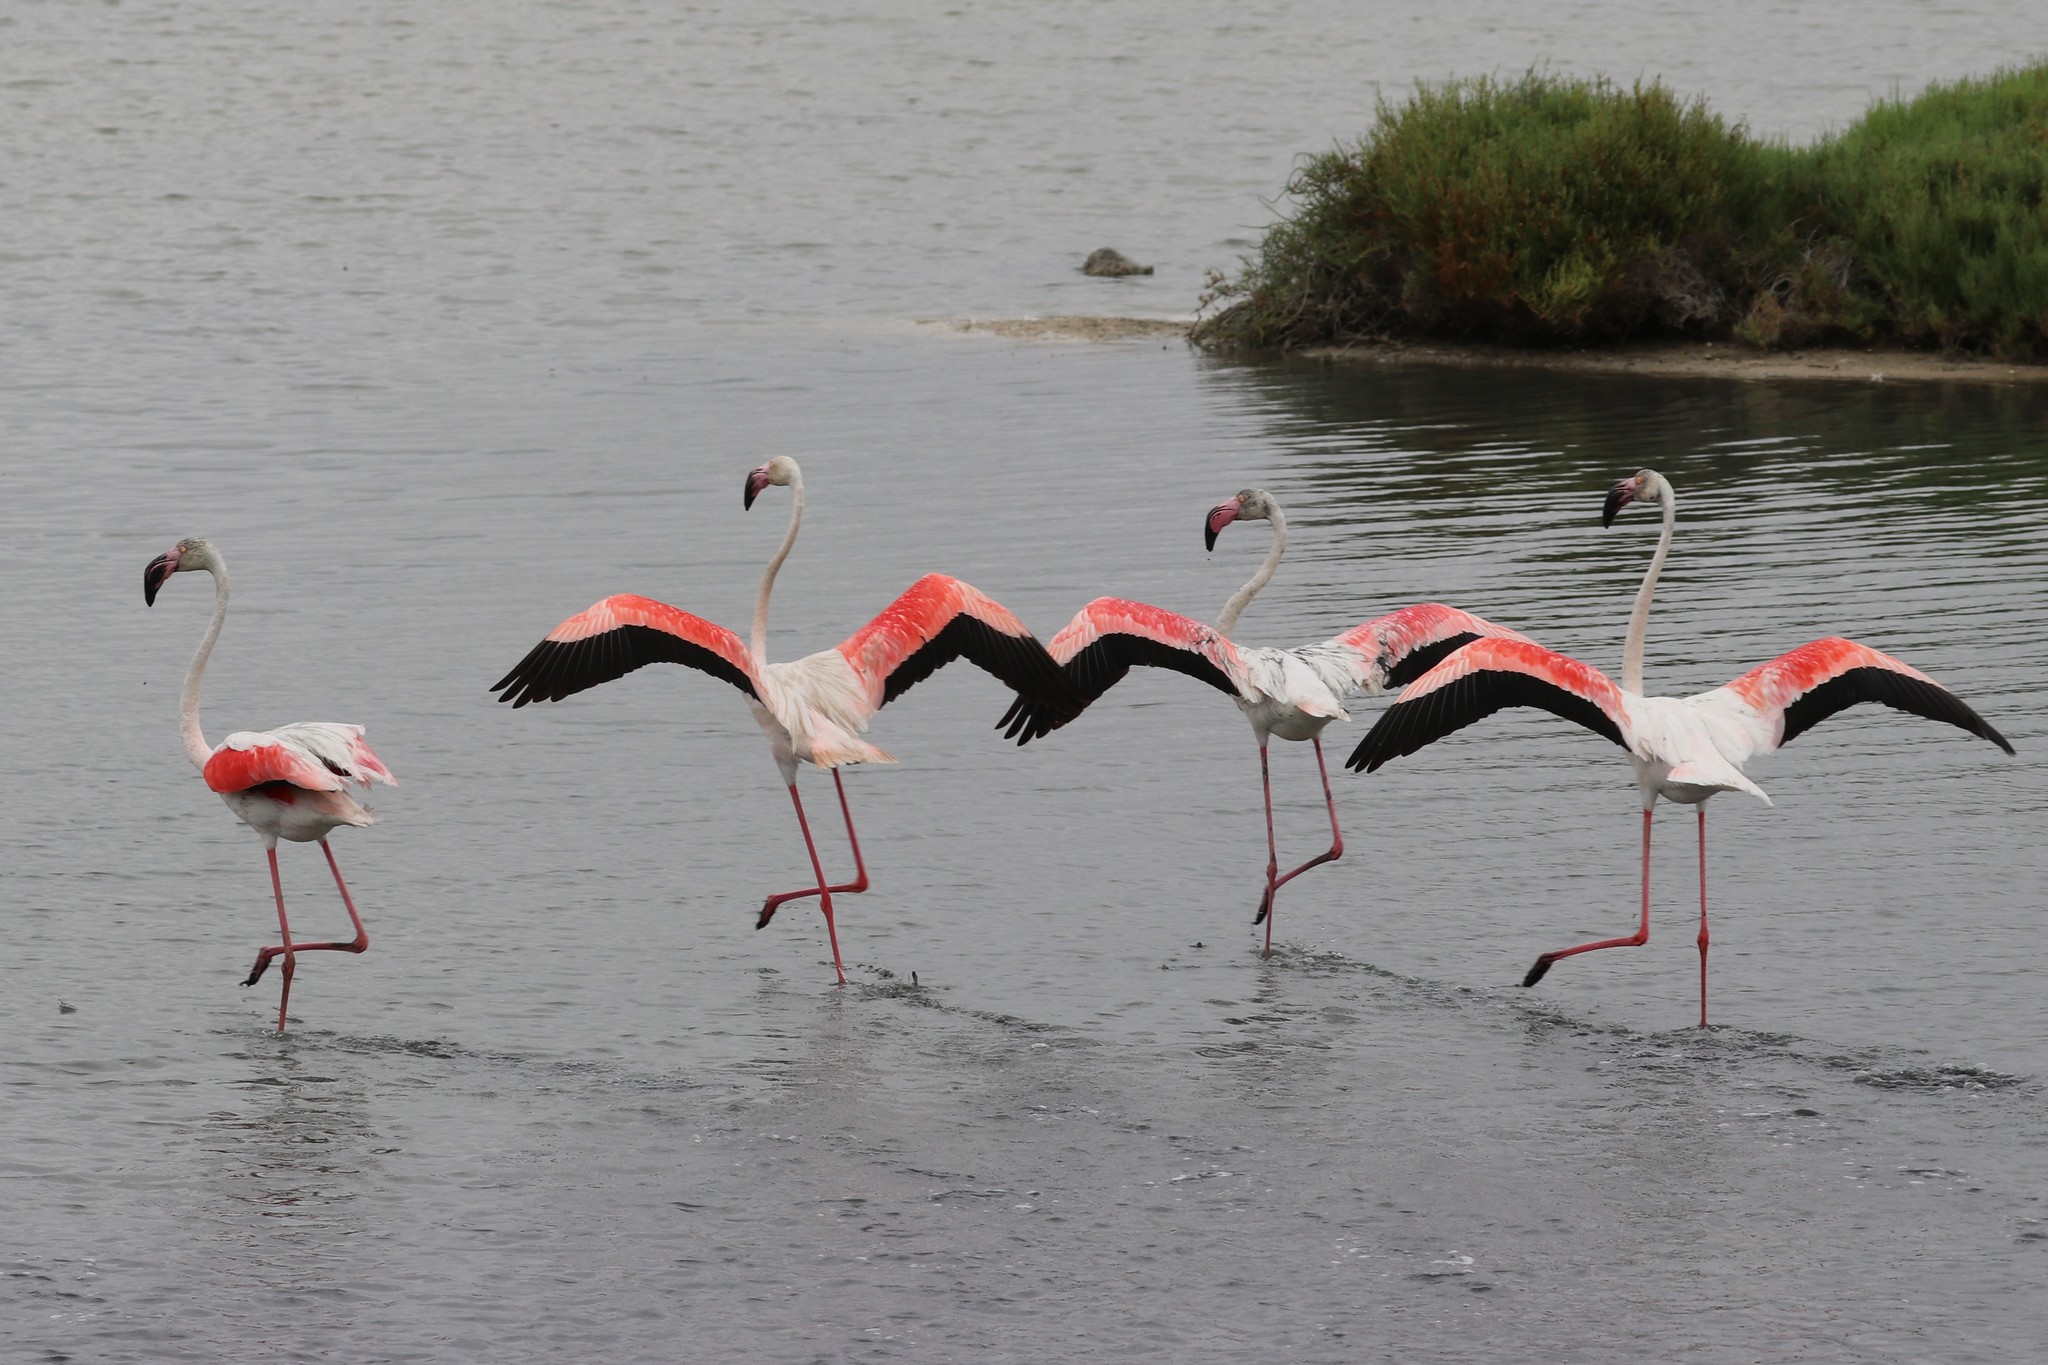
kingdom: Animalia
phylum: Chordata
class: Aves
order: Phoenicopteriformes
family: Phoenicopteridae
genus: Phoenicopterus
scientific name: Phoenicopterus roseus
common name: Greater flamingo
